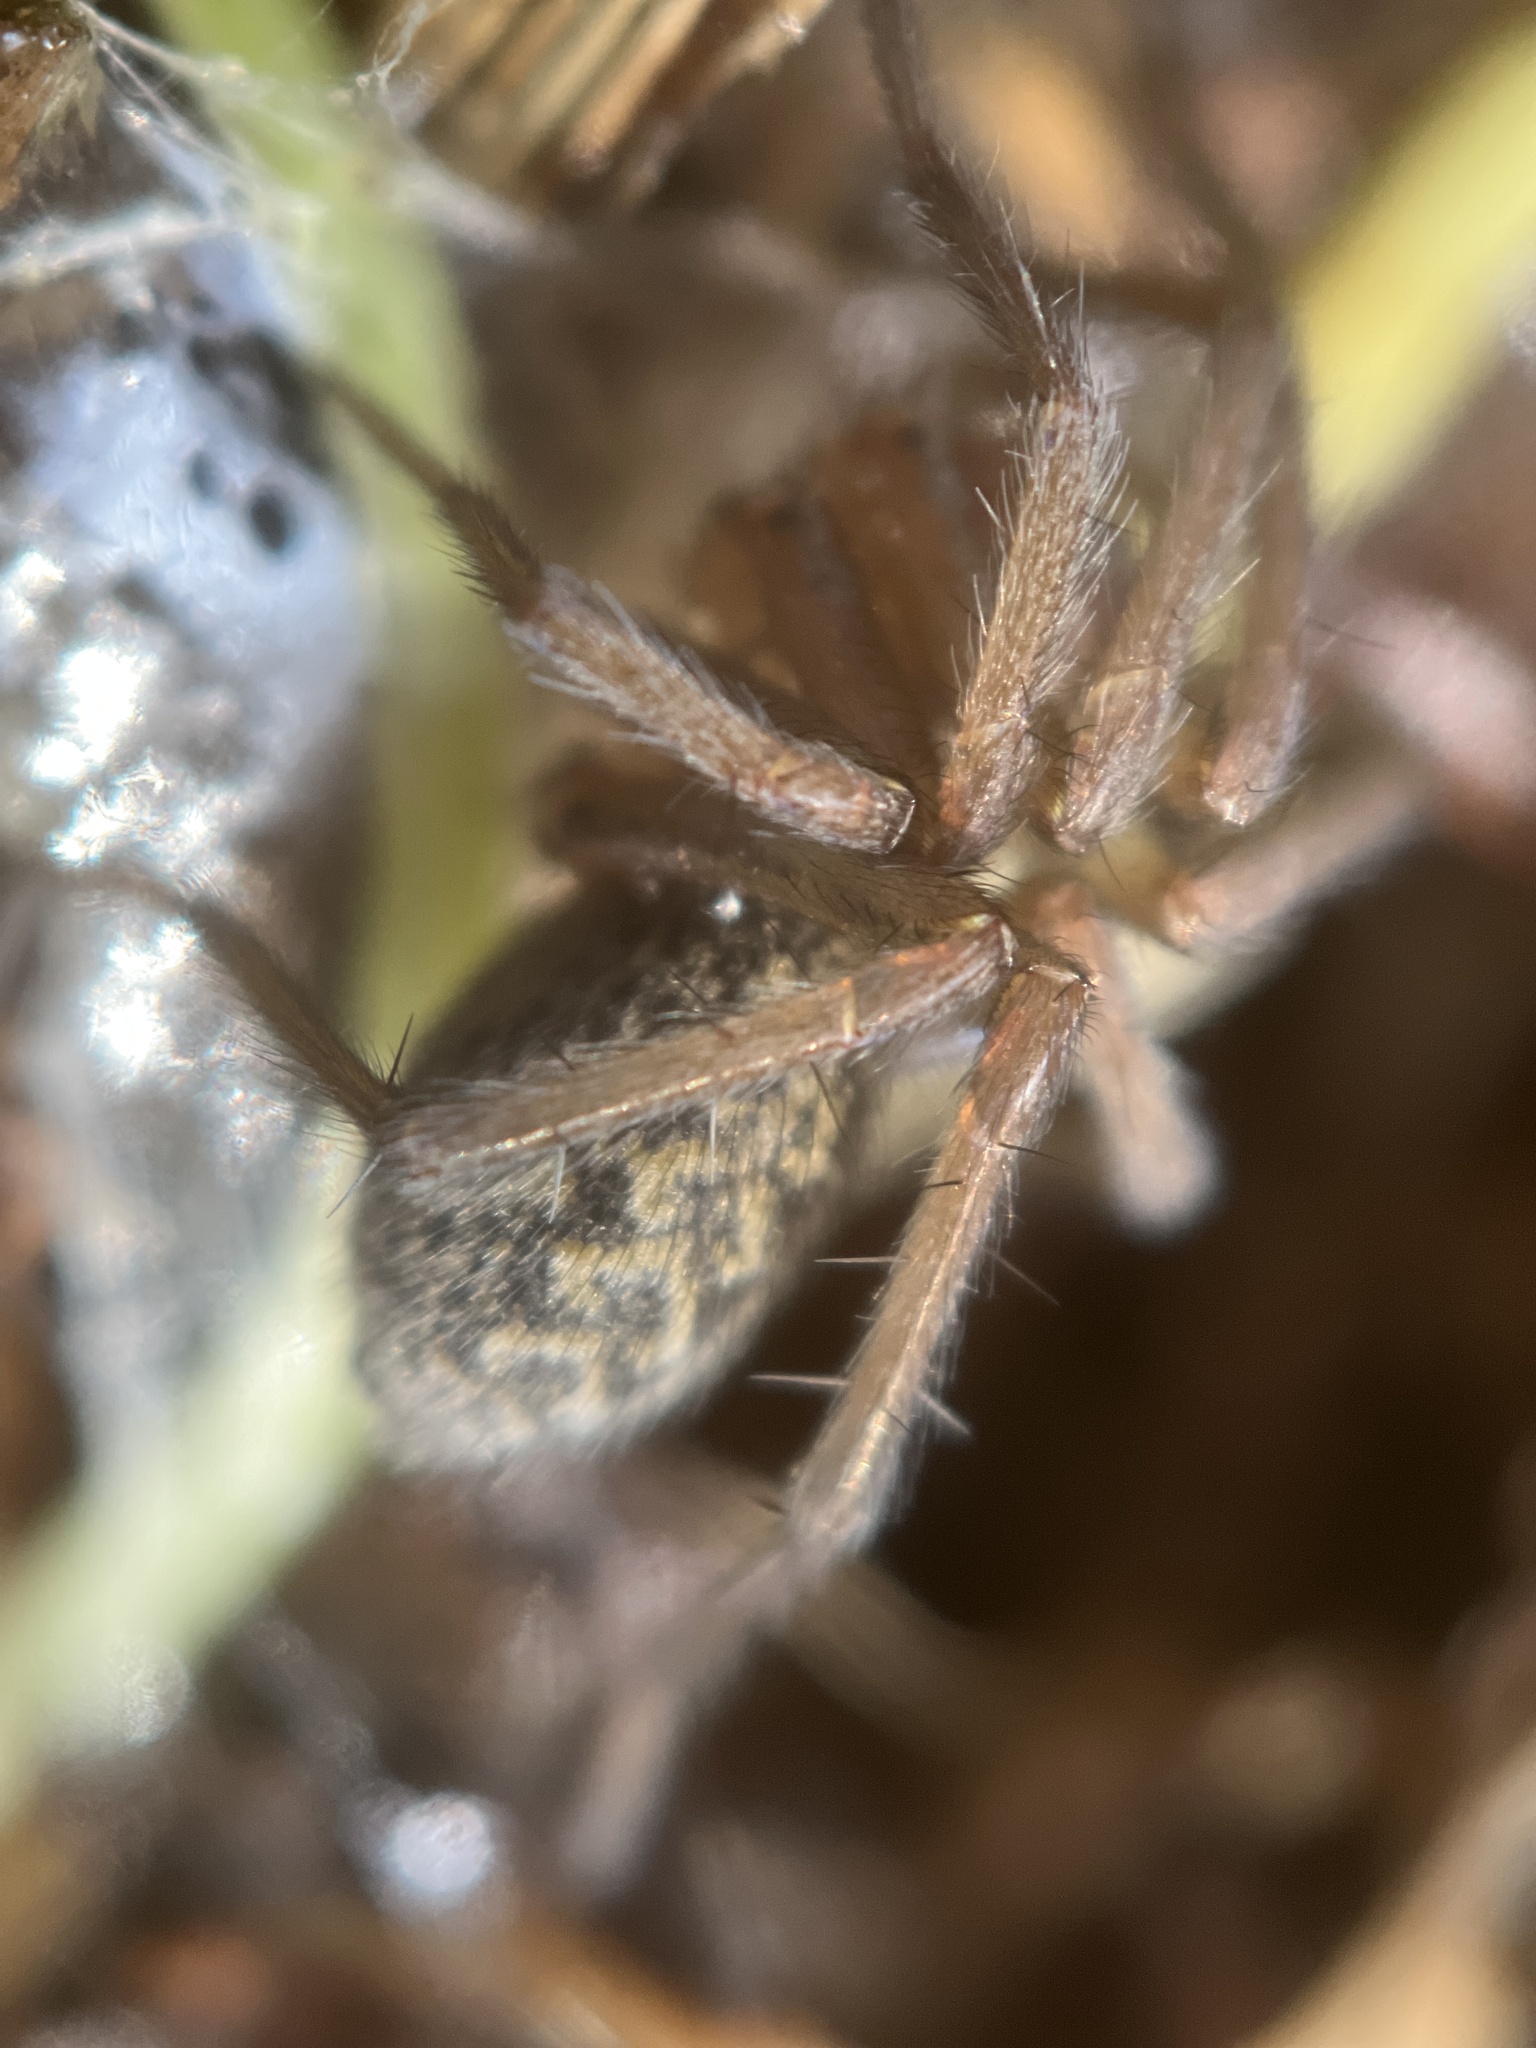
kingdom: Animalia
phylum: Arthropoda
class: Arachnida
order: Araneae
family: Agelenidae
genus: Eratigena
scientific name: Eratigena agrestis
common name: Hobo spider
